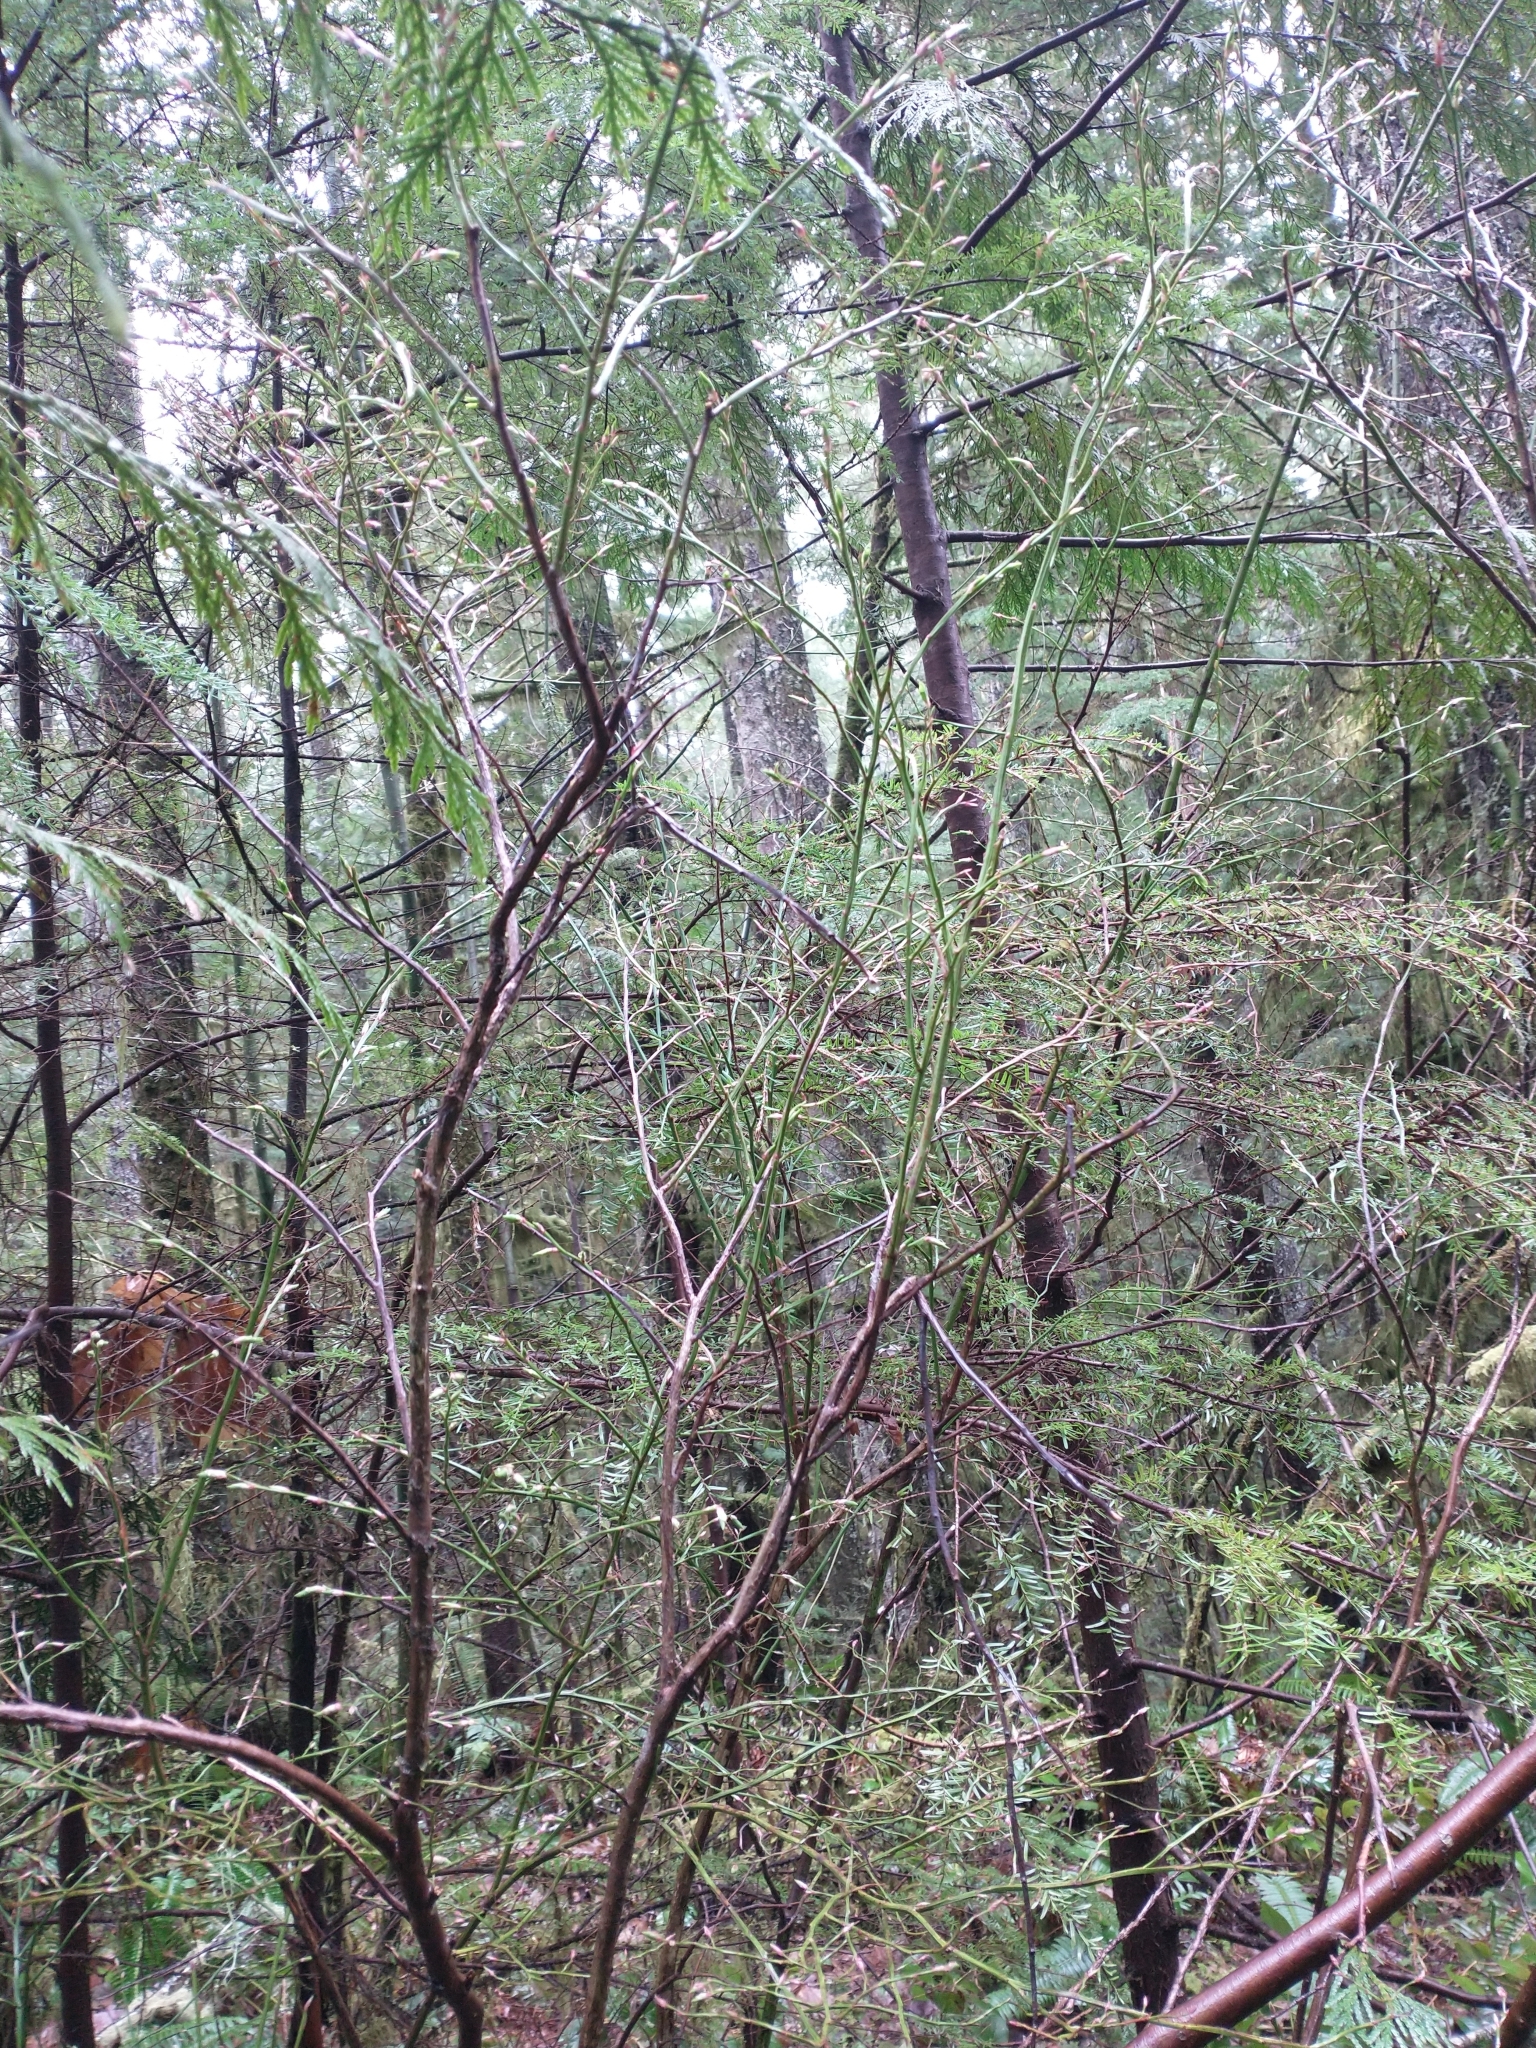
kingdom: Plantae
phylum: Tracheophyta
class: Magnoliopsida
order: Ericales
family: Ericaceae
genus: Vaccinium
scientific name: Vaccinium parvifolium
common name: Red-huckleberry
